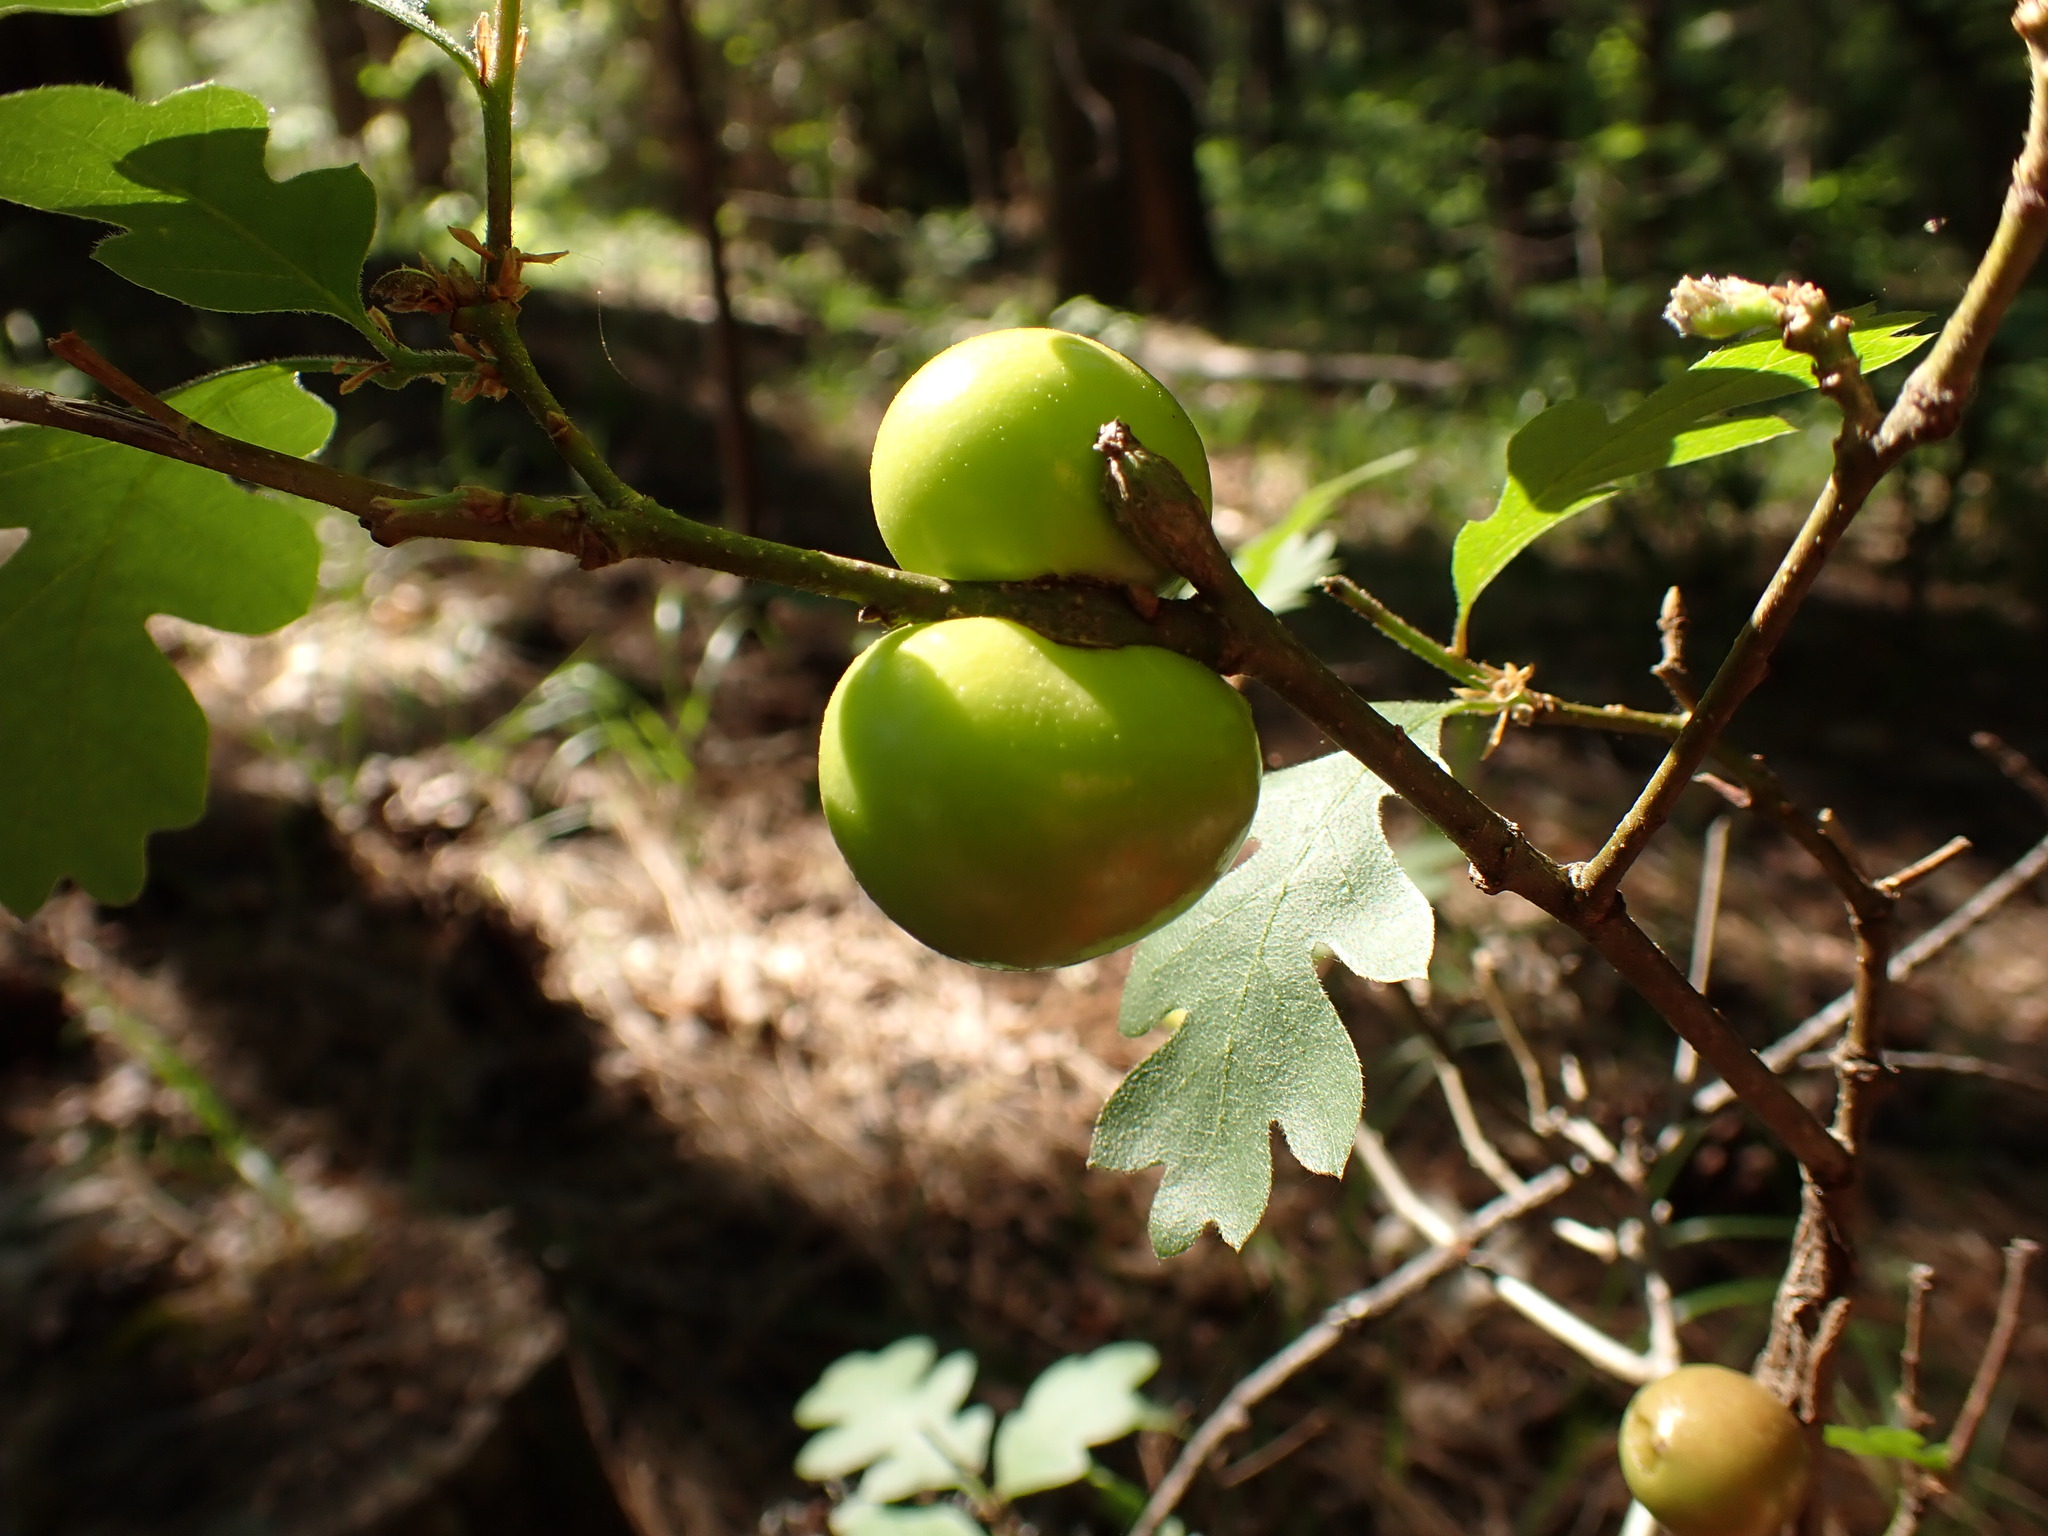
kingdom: Animalia
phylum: Arthropoda
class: Insecta
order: Hymenoptera
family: Cynipidae
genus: Andricus
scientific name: Andricus quercuscalifornicus
